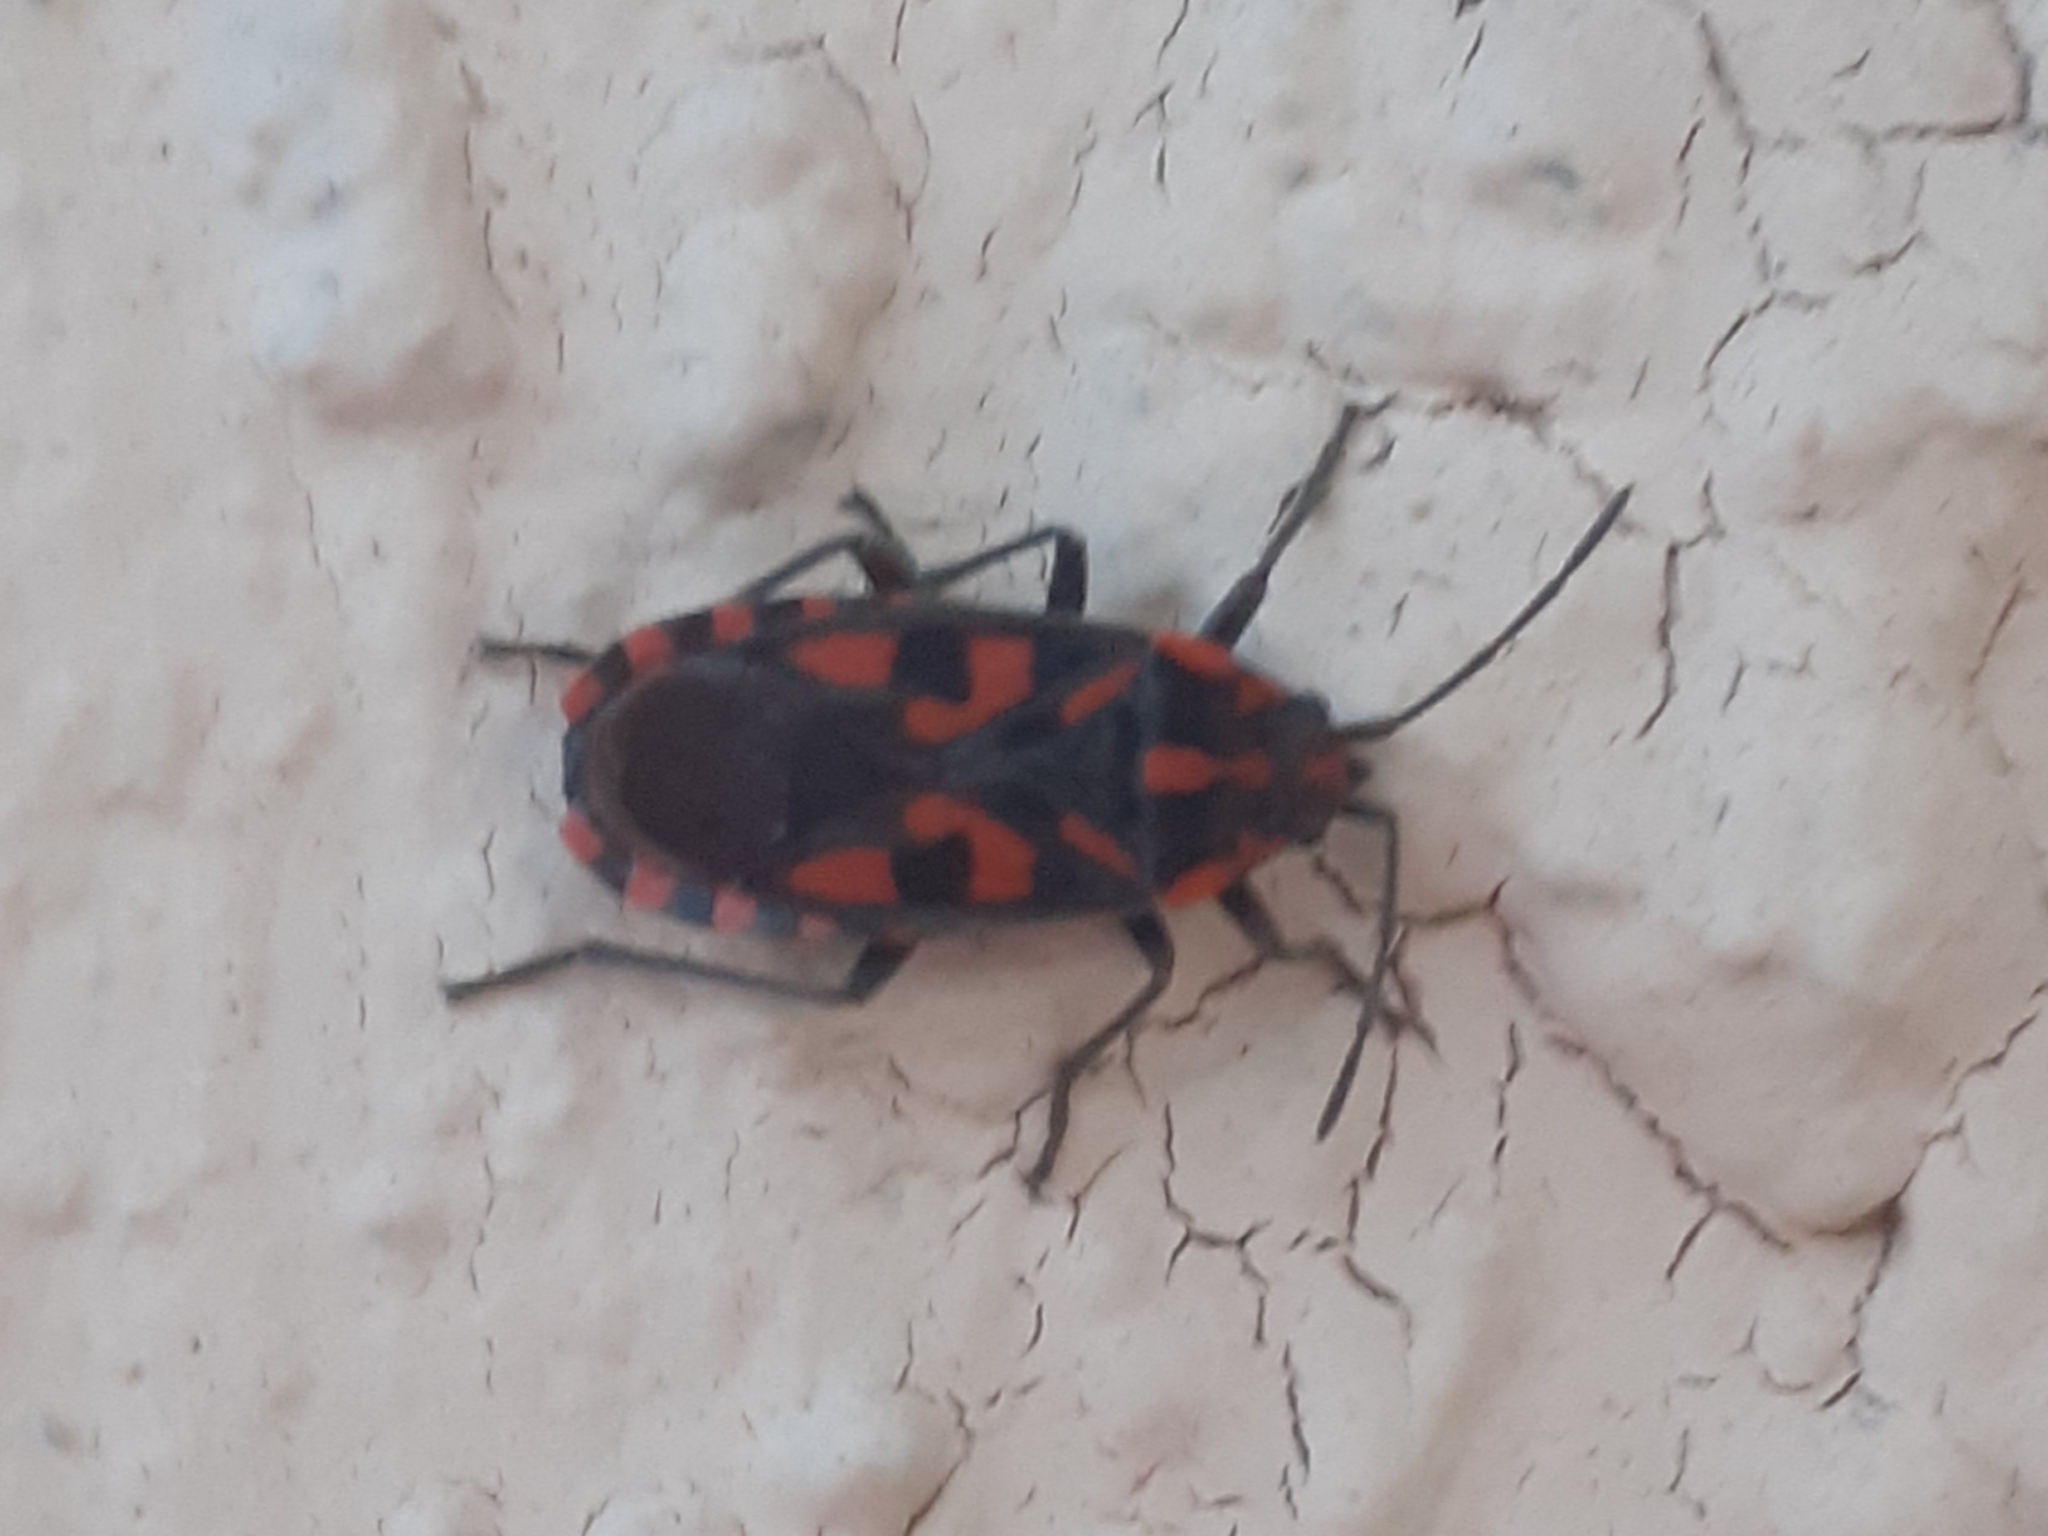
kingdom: Animalia
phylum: Arthropoda
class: Insecta
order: Hemiptera
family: Lygaeidae
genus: Spilostethus
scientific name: Spilostethus saxatilis
